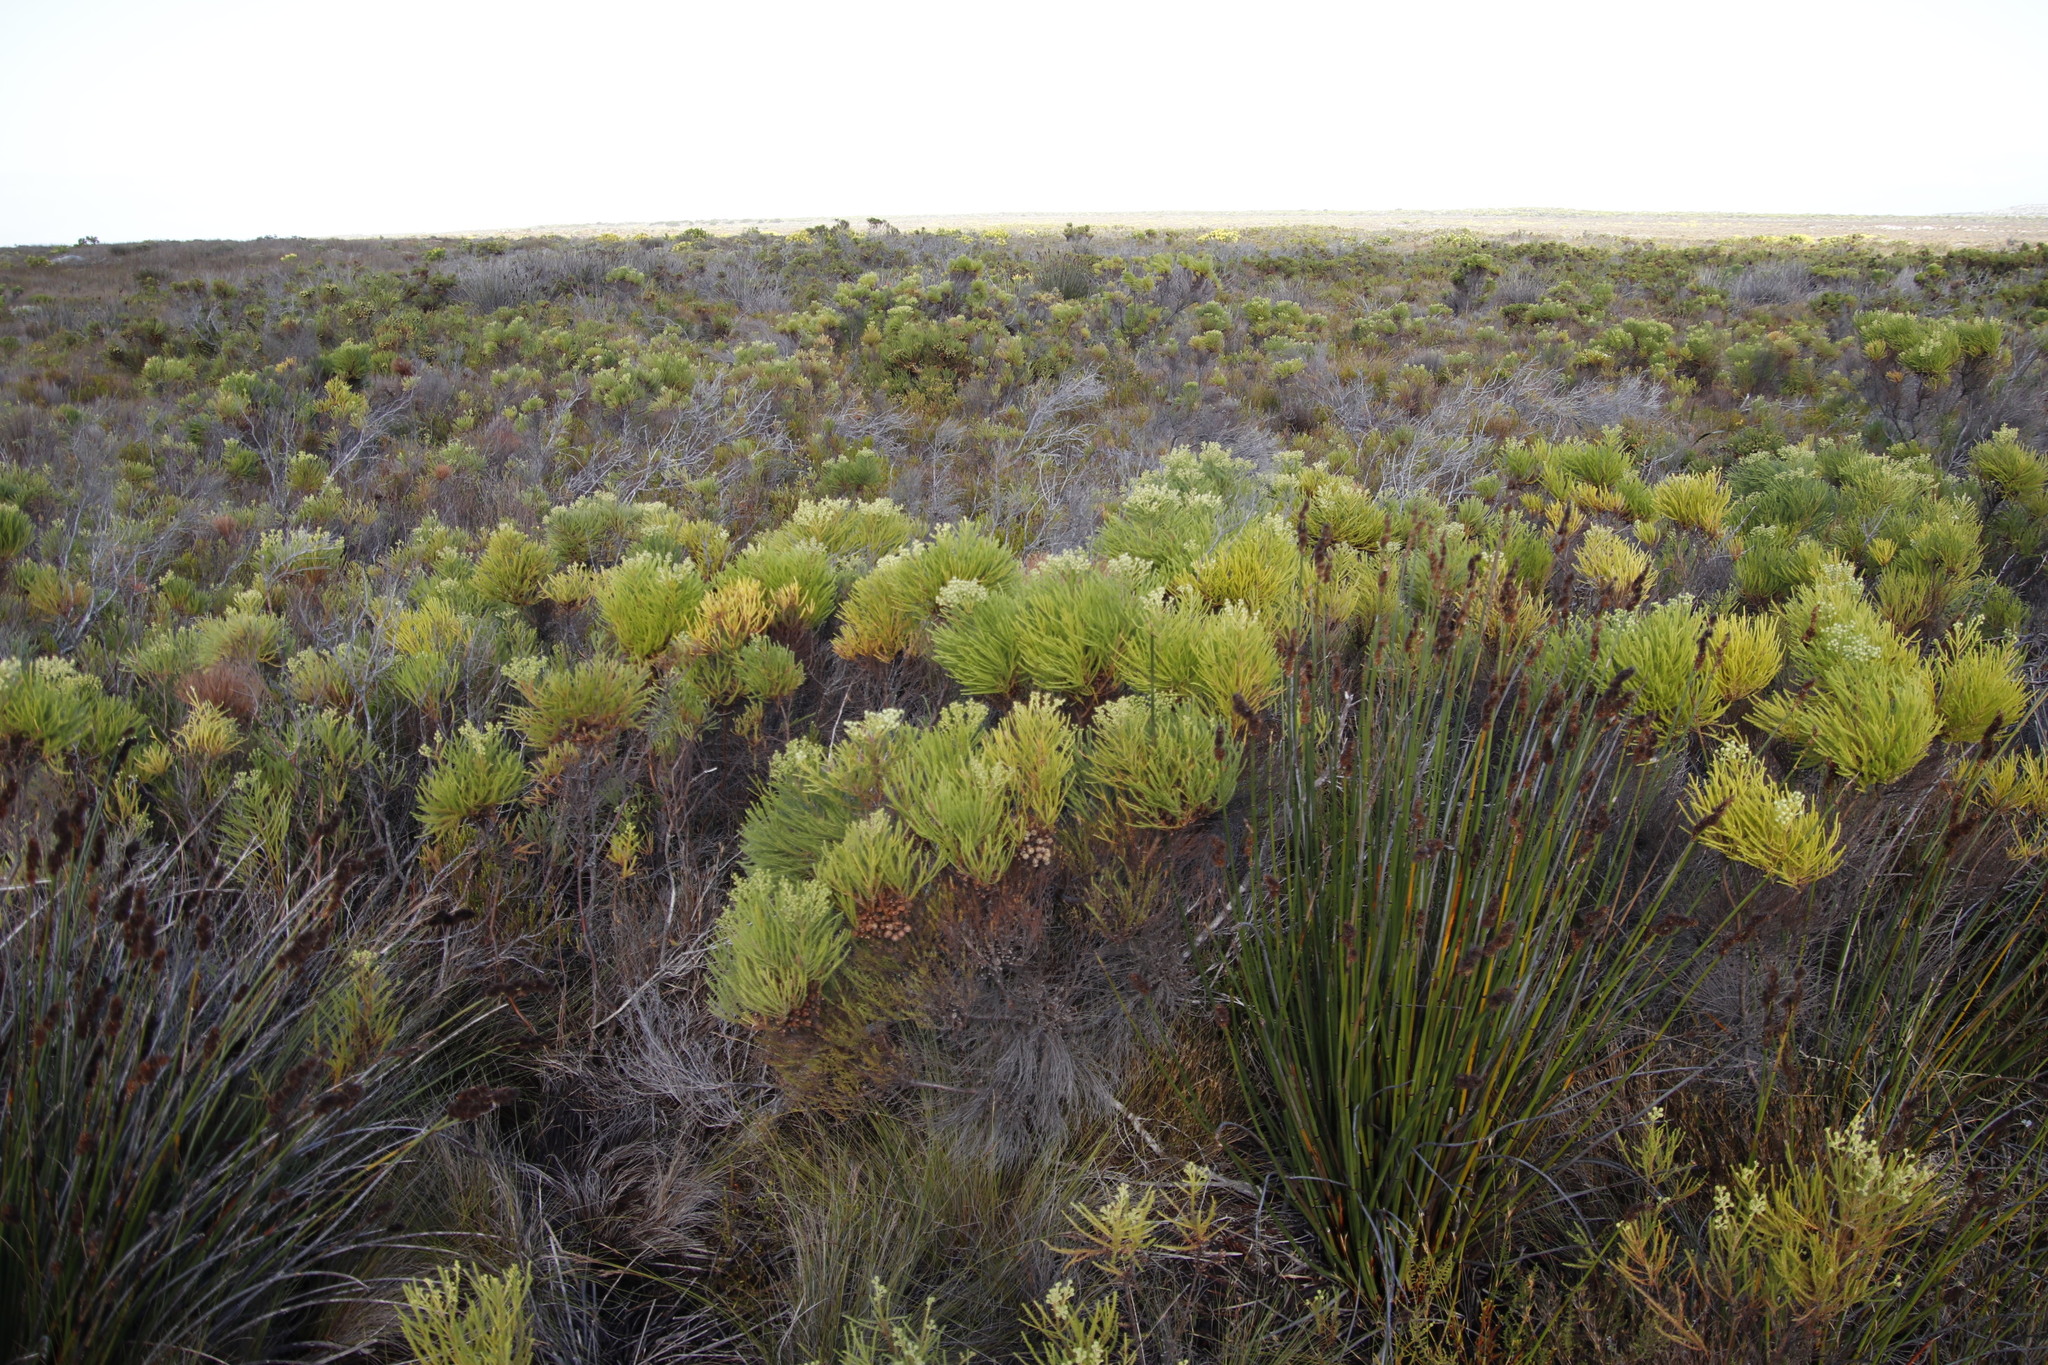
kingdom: Plantae
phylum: Tracheophyta
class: Magnoliopsida
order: Bruniales
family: Bruniaceae
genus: Berzelia
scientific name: Berzelia lanuginosa
